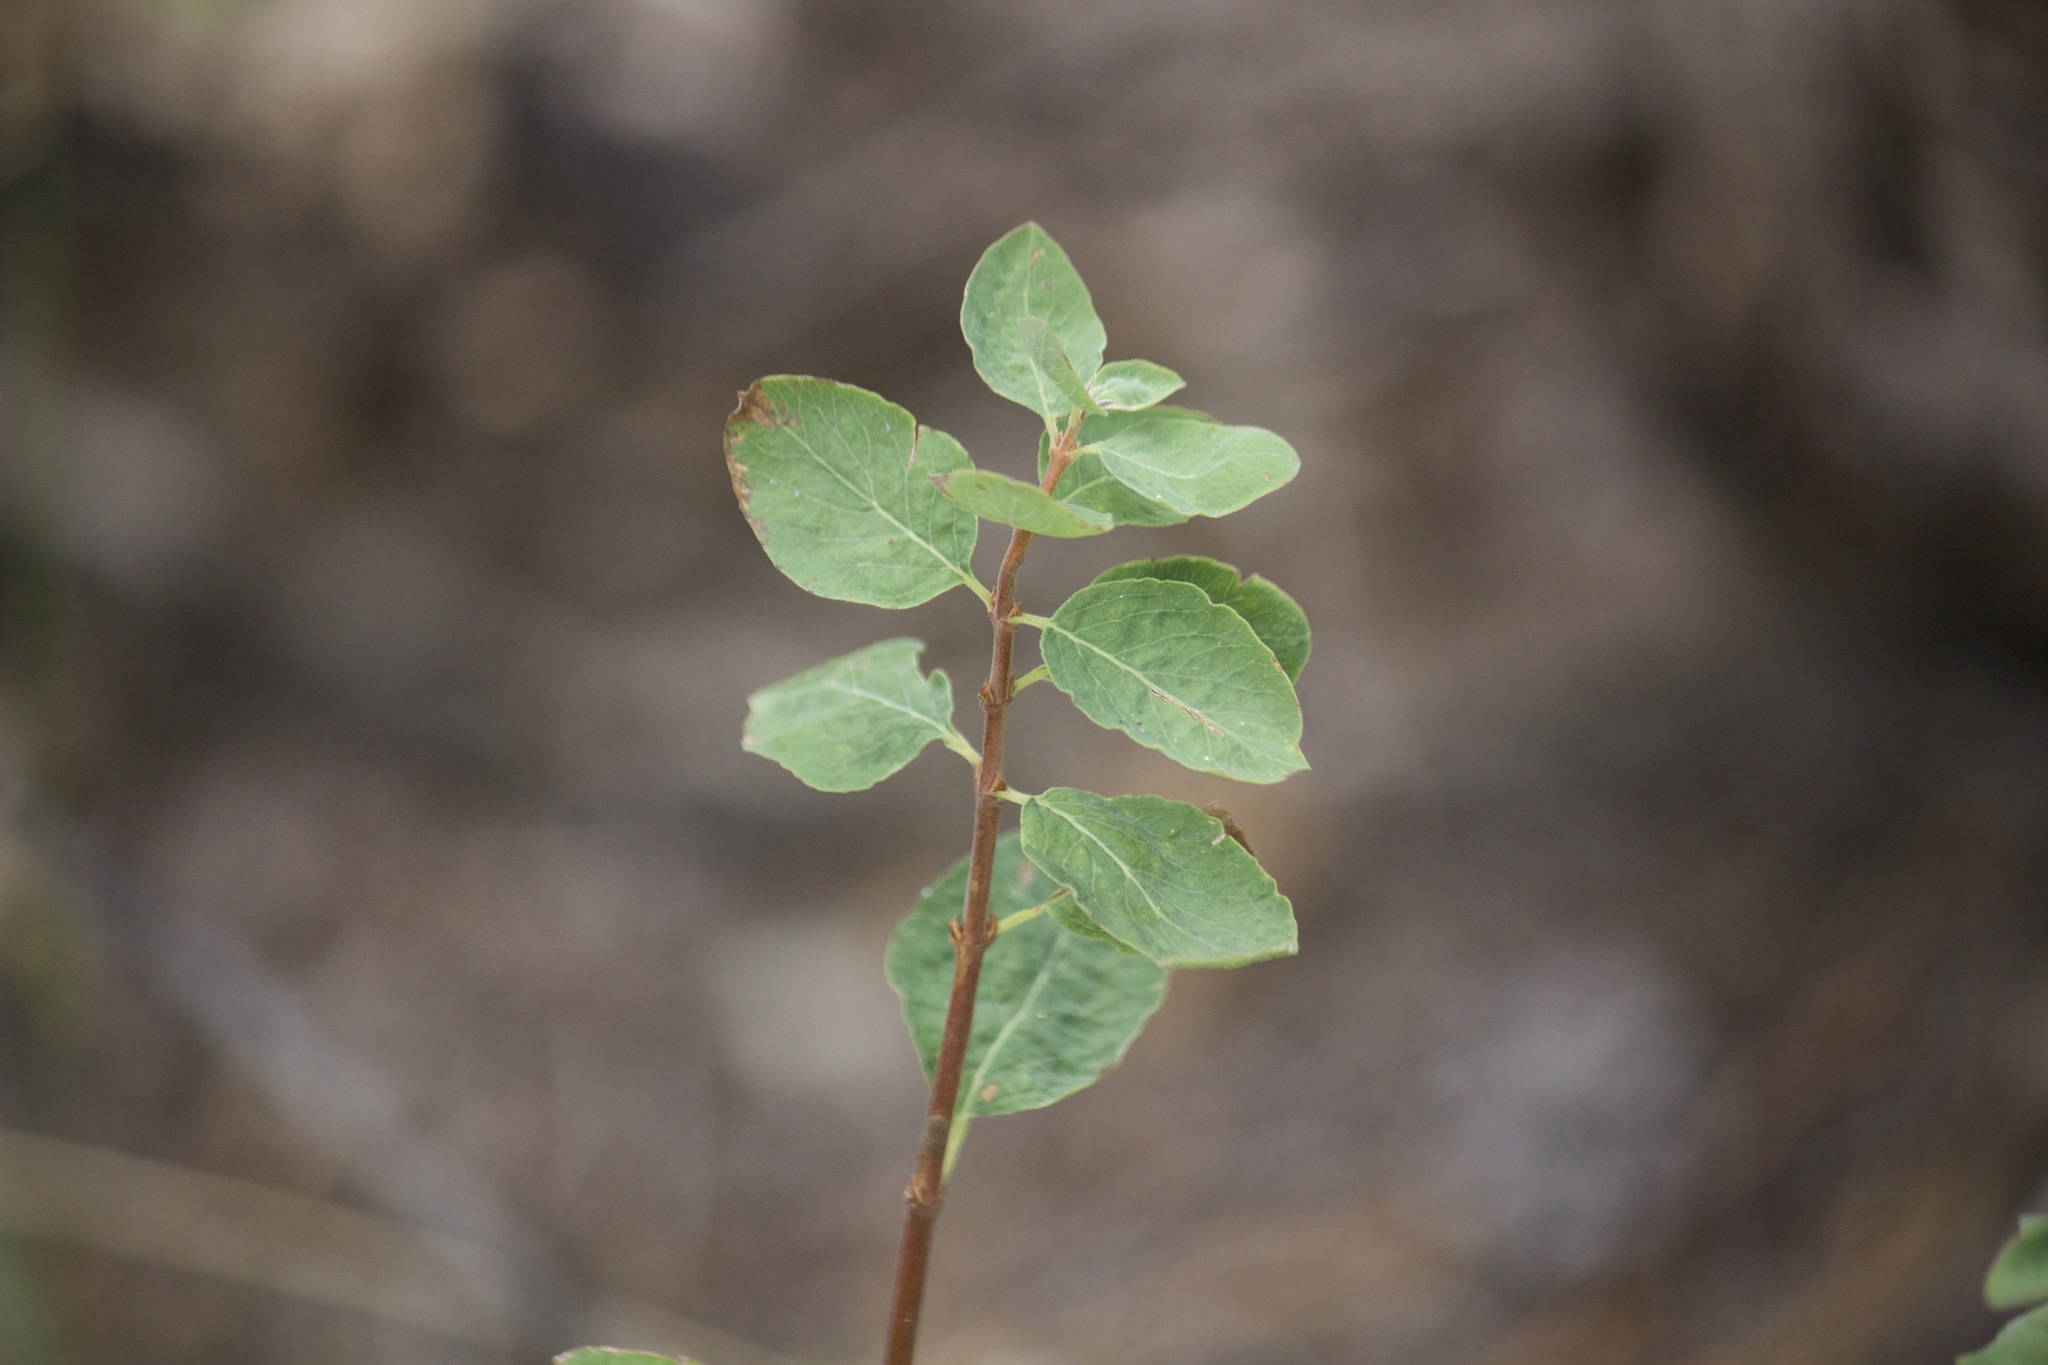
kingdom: Plantae
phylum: Tracheophyta
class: Magnoliopsida
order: Rosales
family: Rosaceae
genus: Spiraea
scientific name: Spiraea splendens
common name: Subalpine meadowsweet
